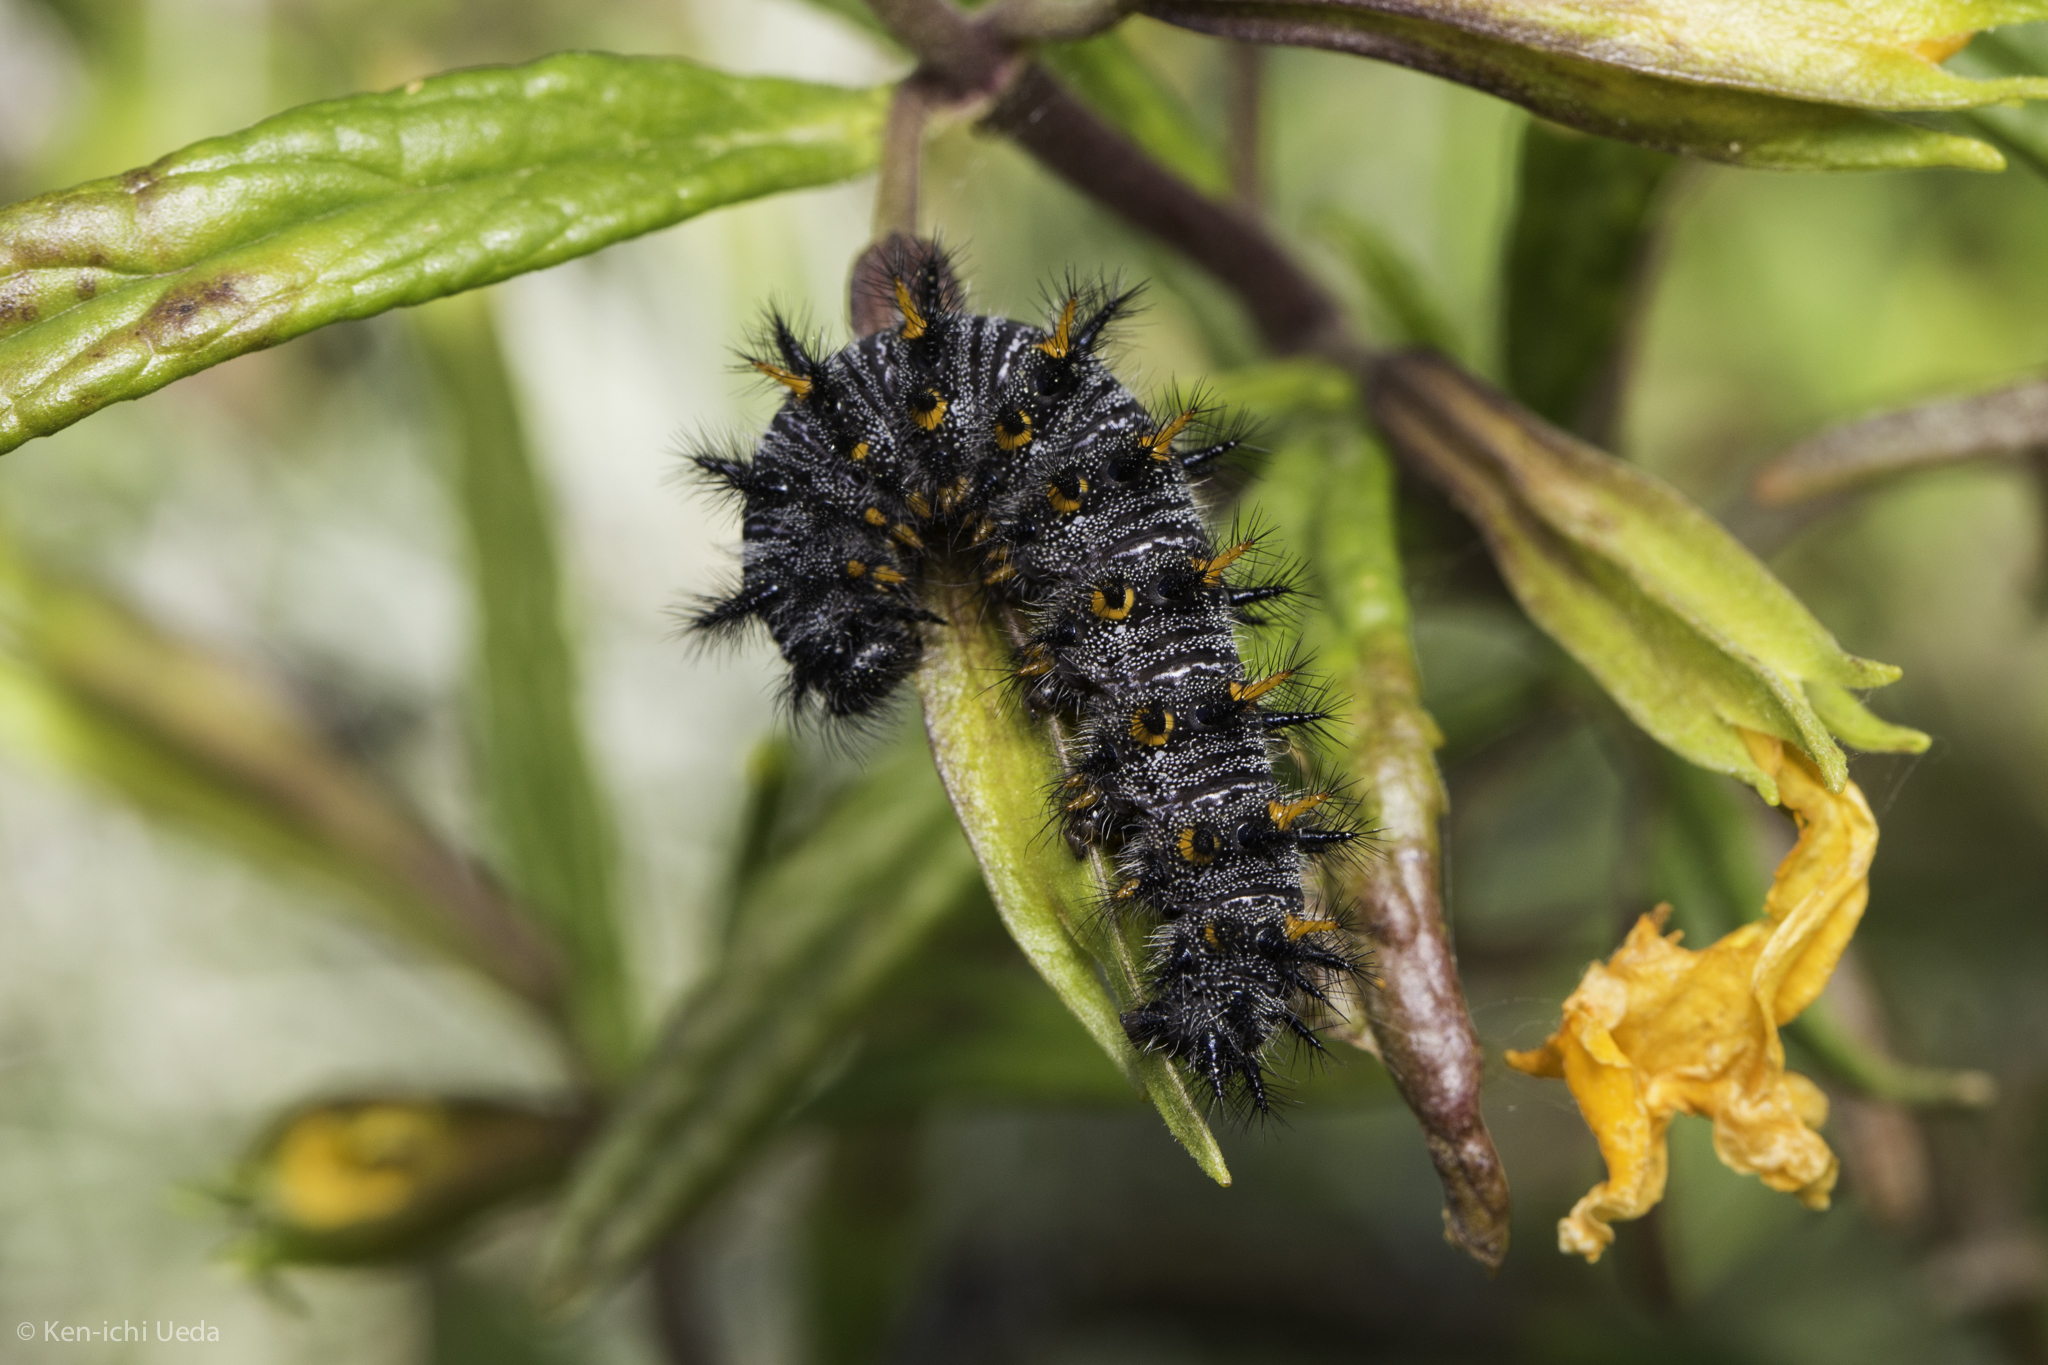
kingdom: Animalia
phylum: Arthropoda
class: Insecta
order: Lepidoptera
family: Nymphalidae
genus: Occidryas
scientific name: Occidryas chalcedona
